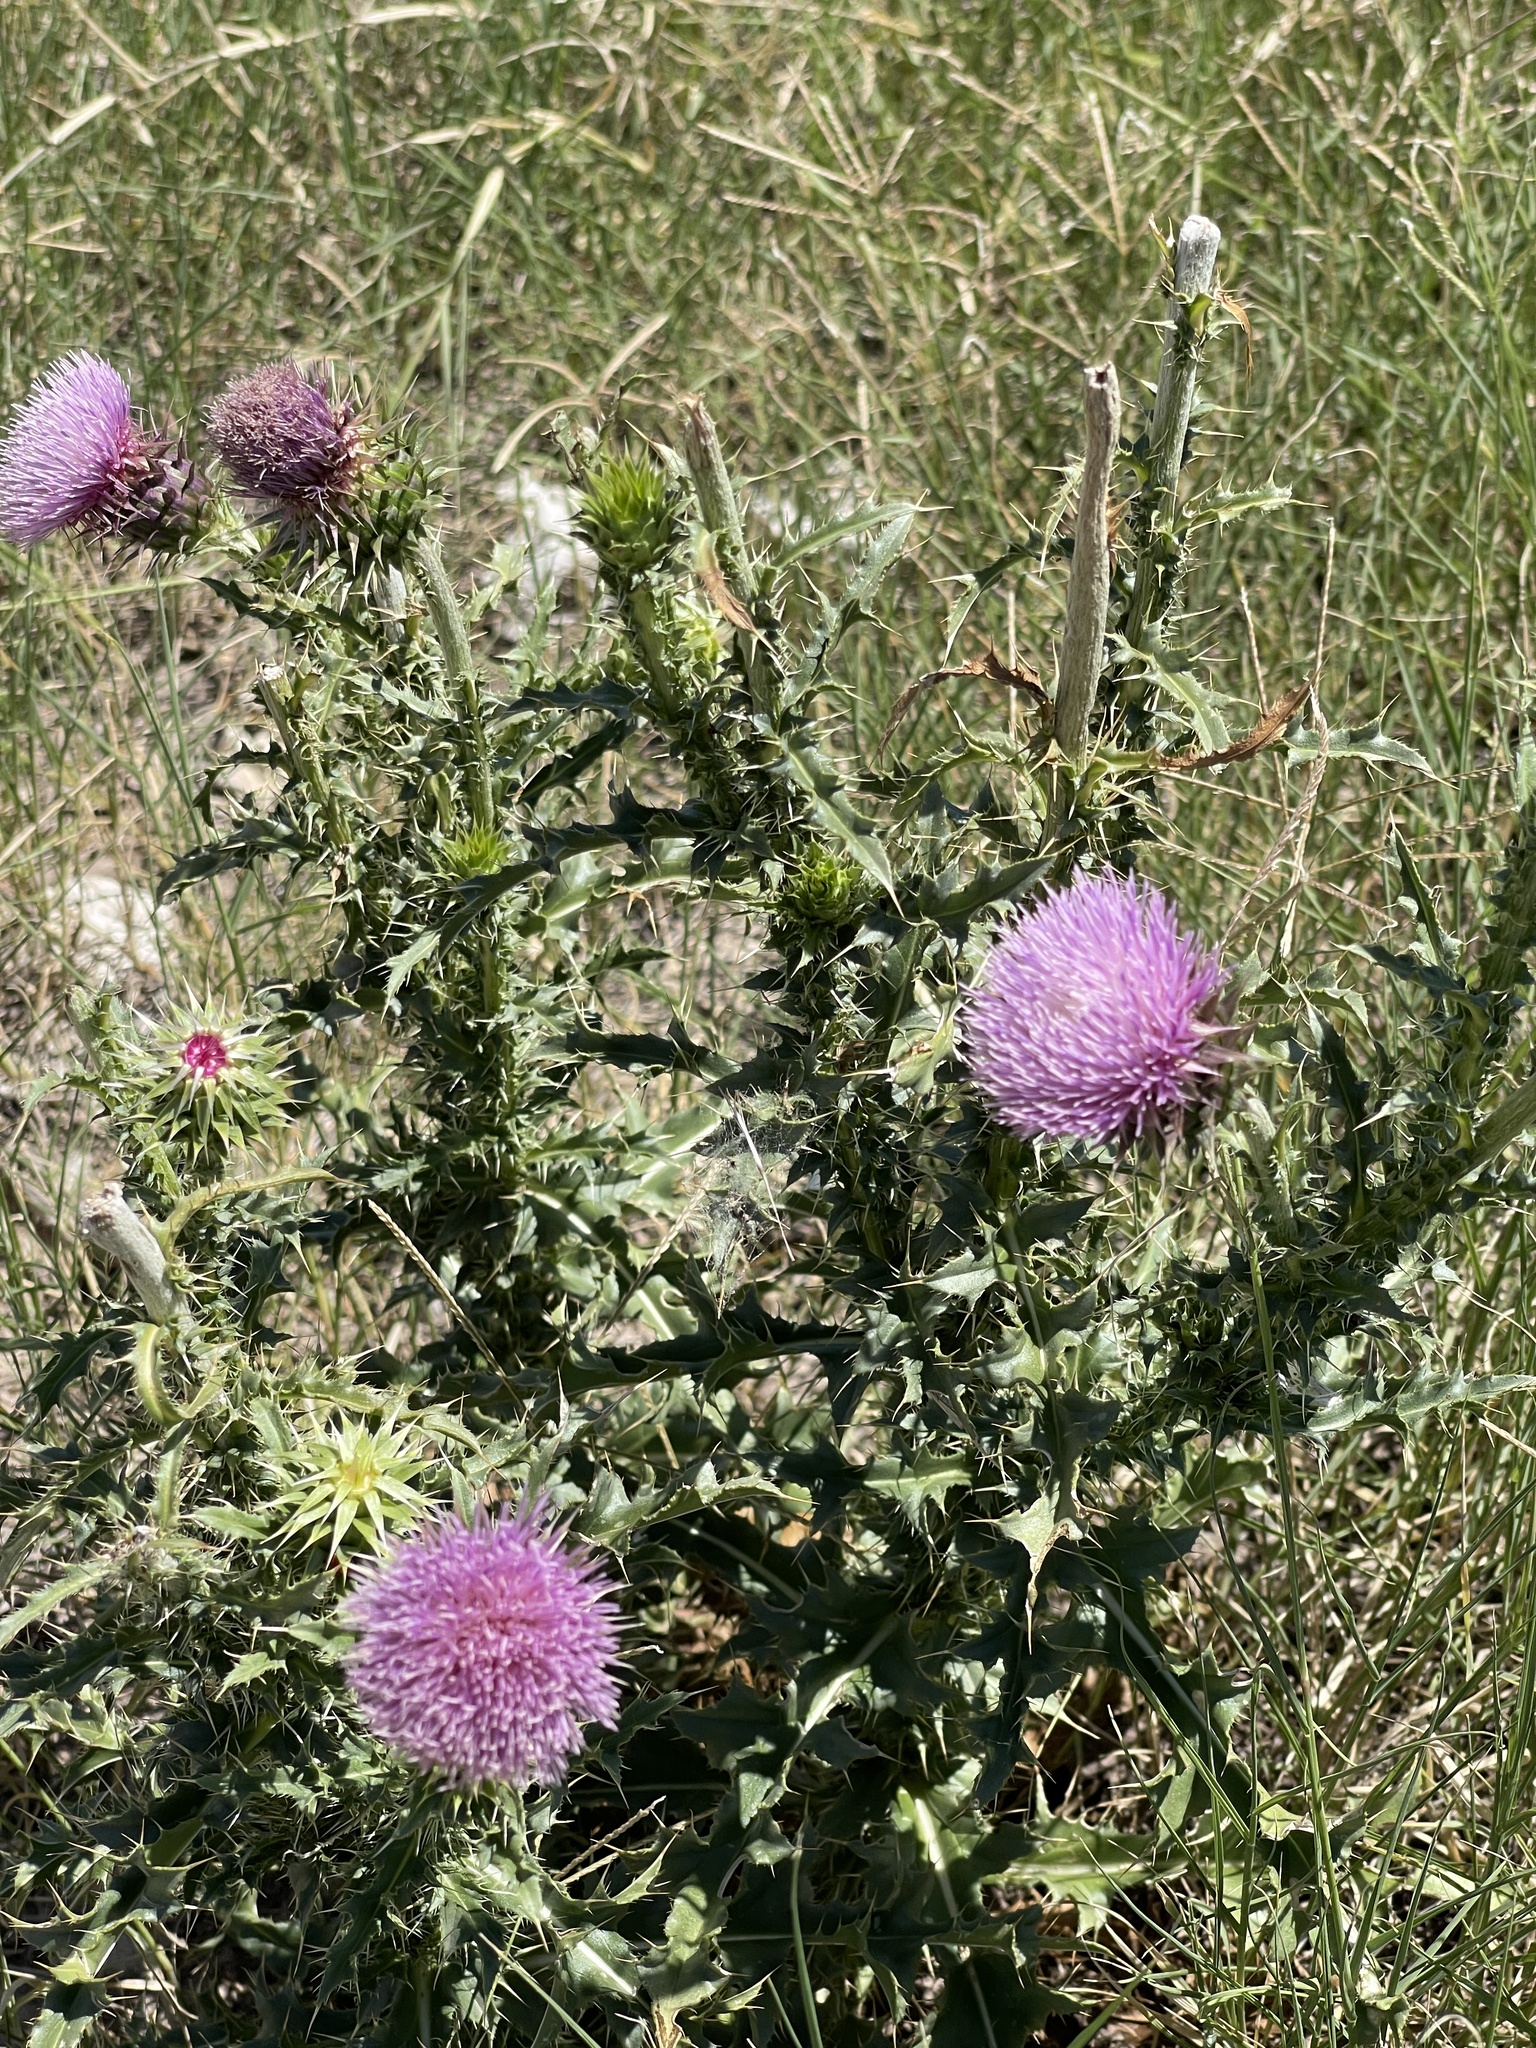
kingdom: Plantae
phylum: Tracheophyta
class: Magnoliopsida
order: Asterales
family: Asteraceae
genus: Carduus
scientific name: Carduus nutans
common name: Musk thistle
